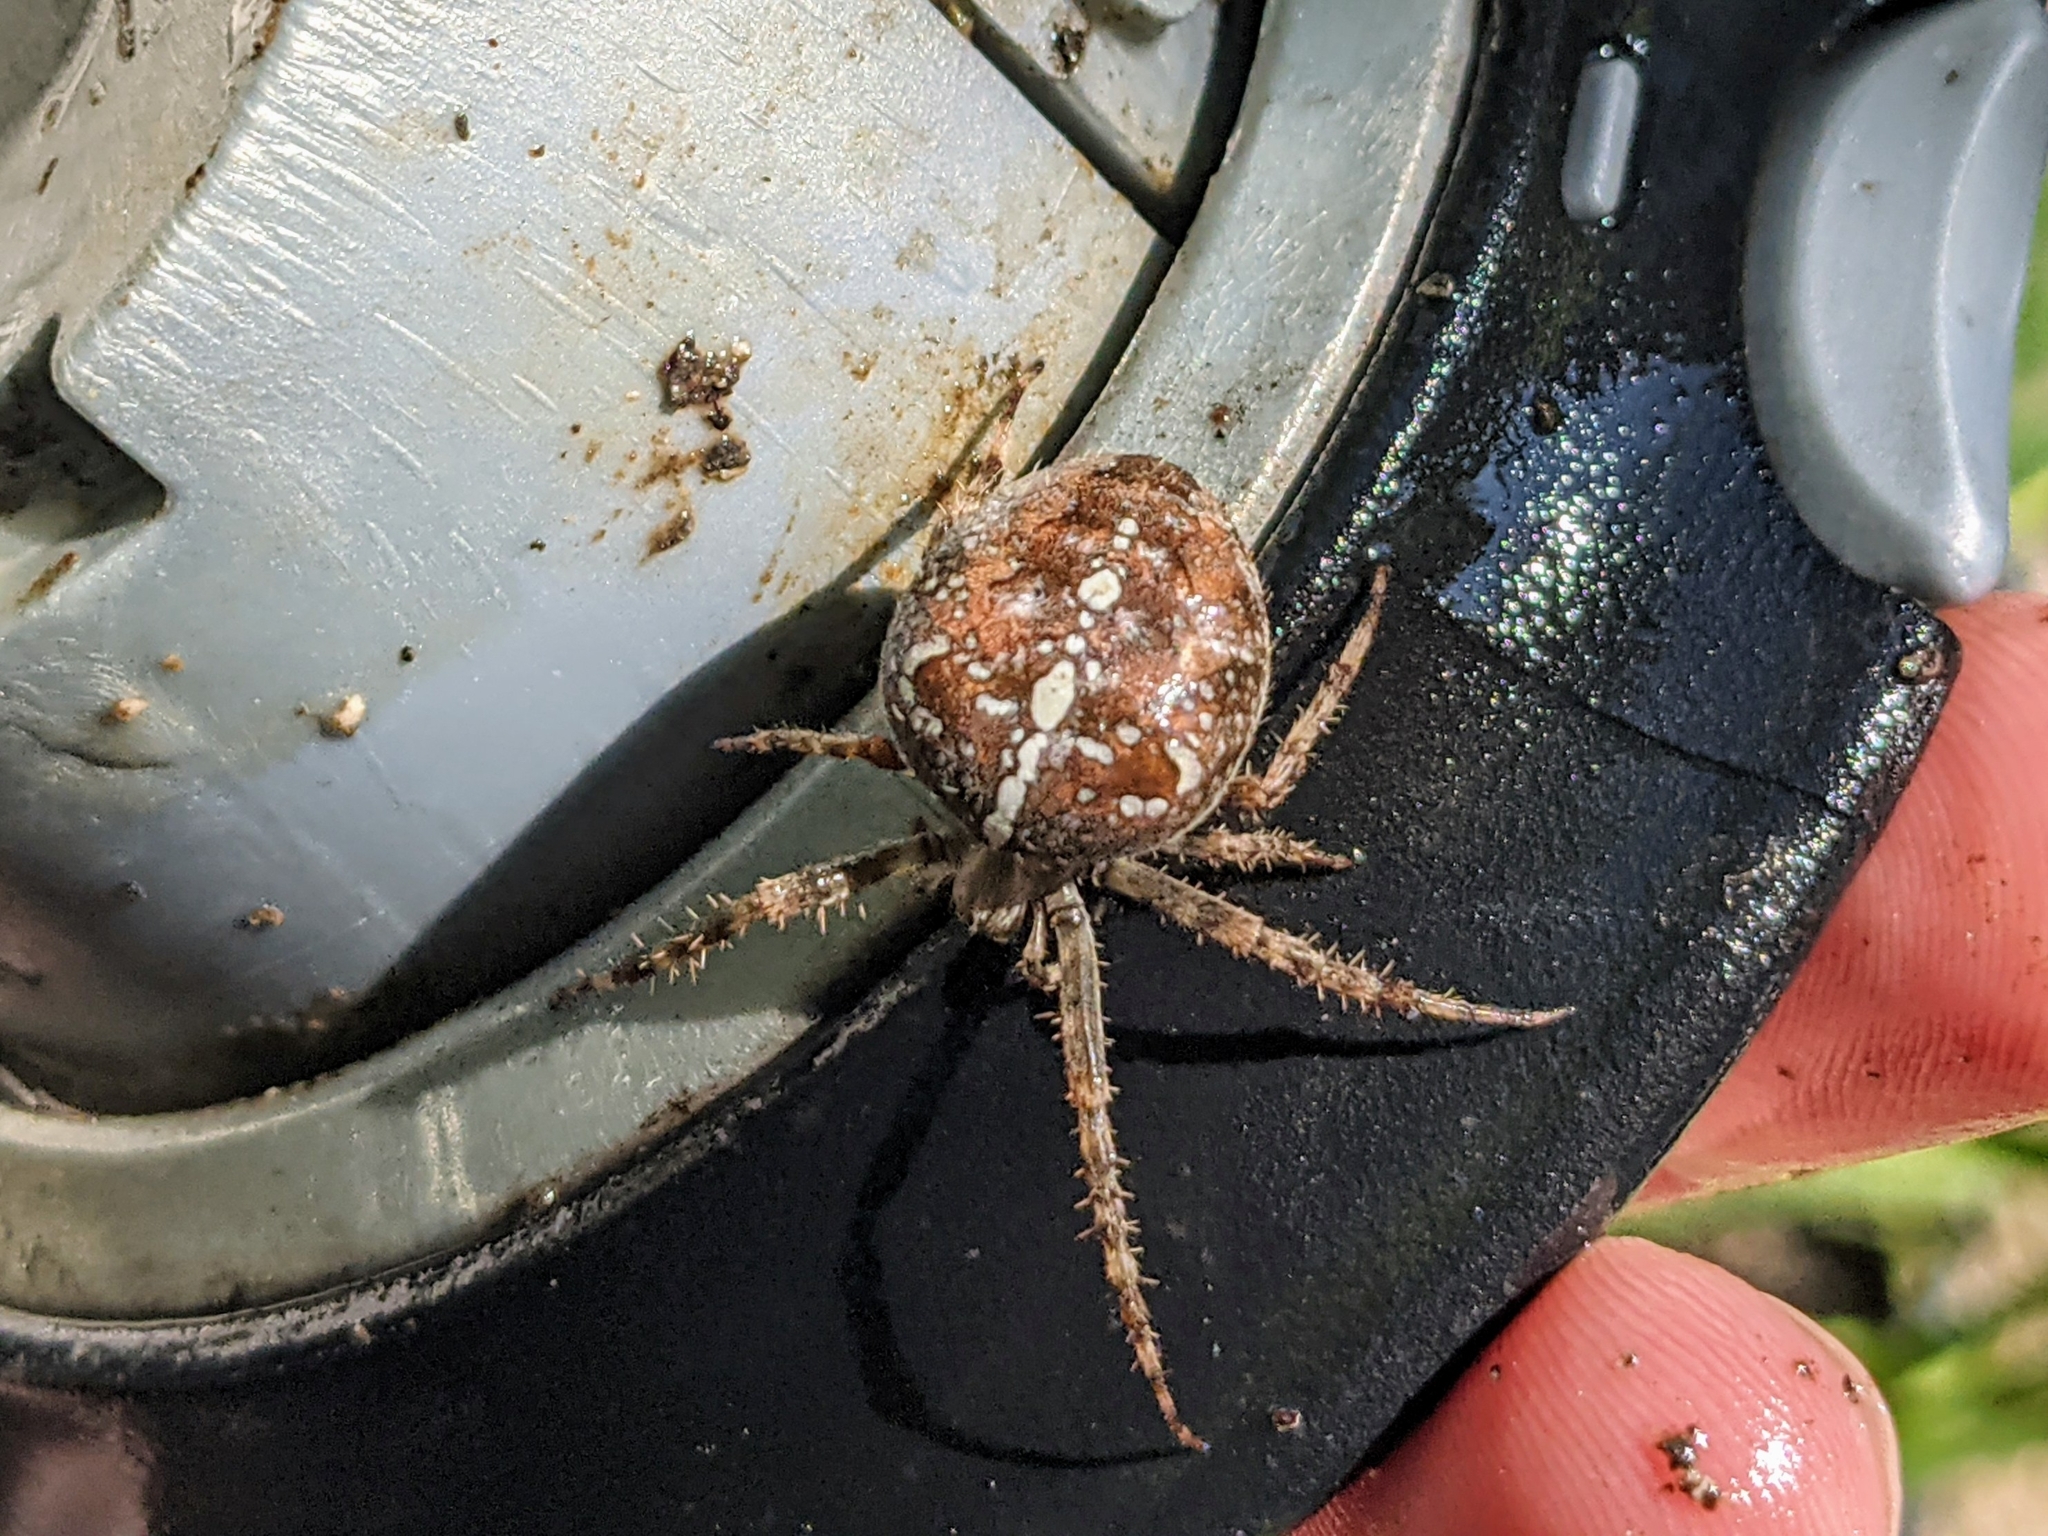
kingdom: Animalia
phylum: Arthropoda
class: Arachnida
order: Araneae
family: Araneidae
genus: Araneus
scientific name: Araneus diadematus
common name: Cross orbweaver
